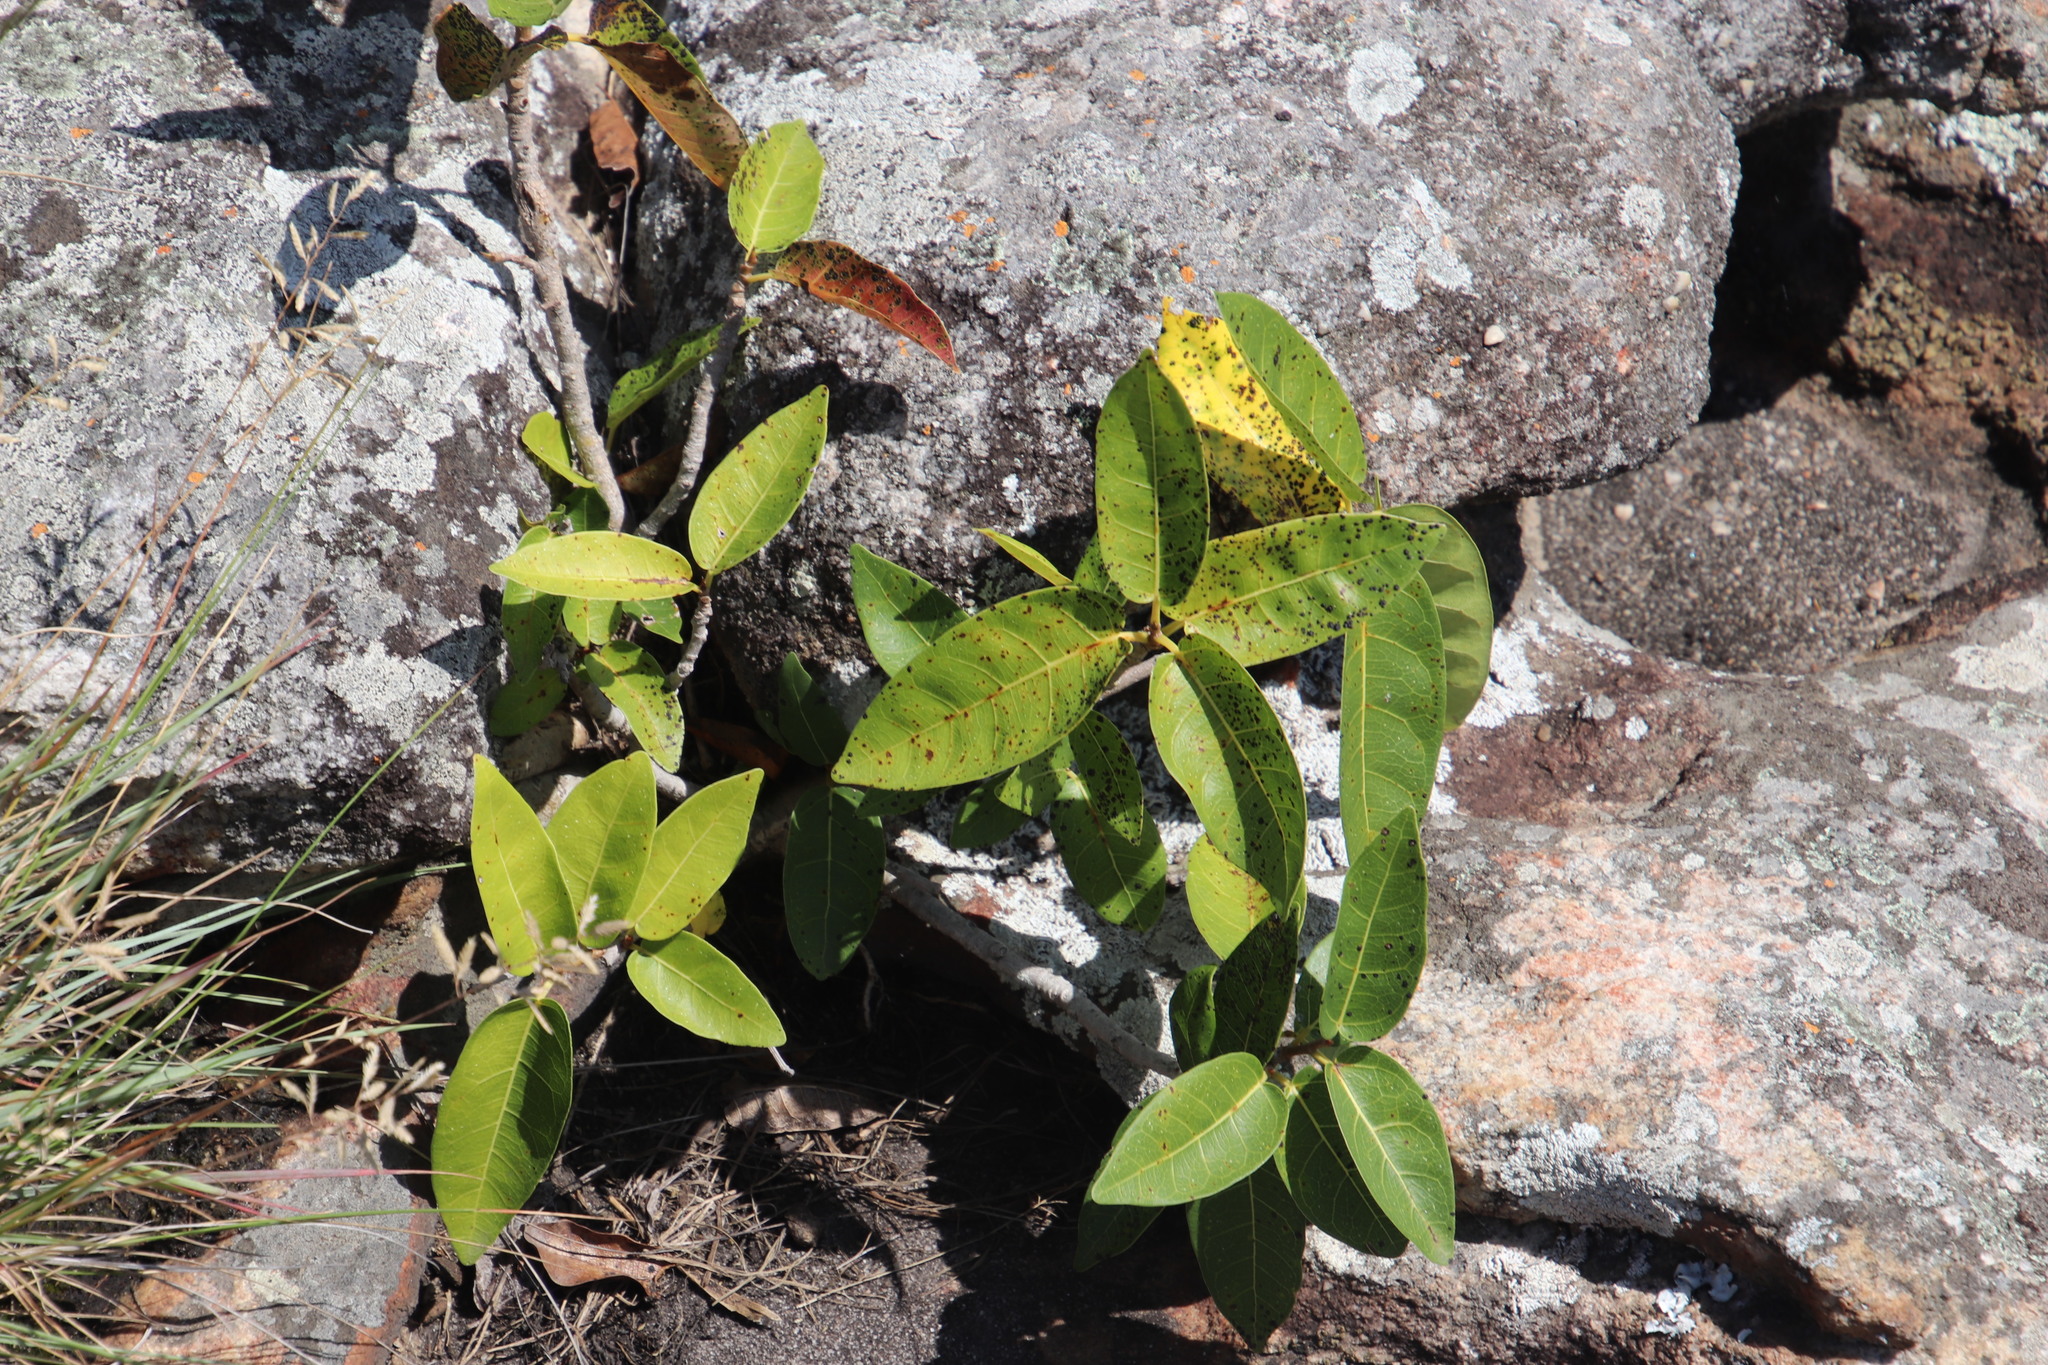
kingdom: Plantae
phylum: Tracheophyta
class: Magnoliopsida
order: Rosales
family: Moraceae
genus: Ficus
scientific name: Ficus ingens
